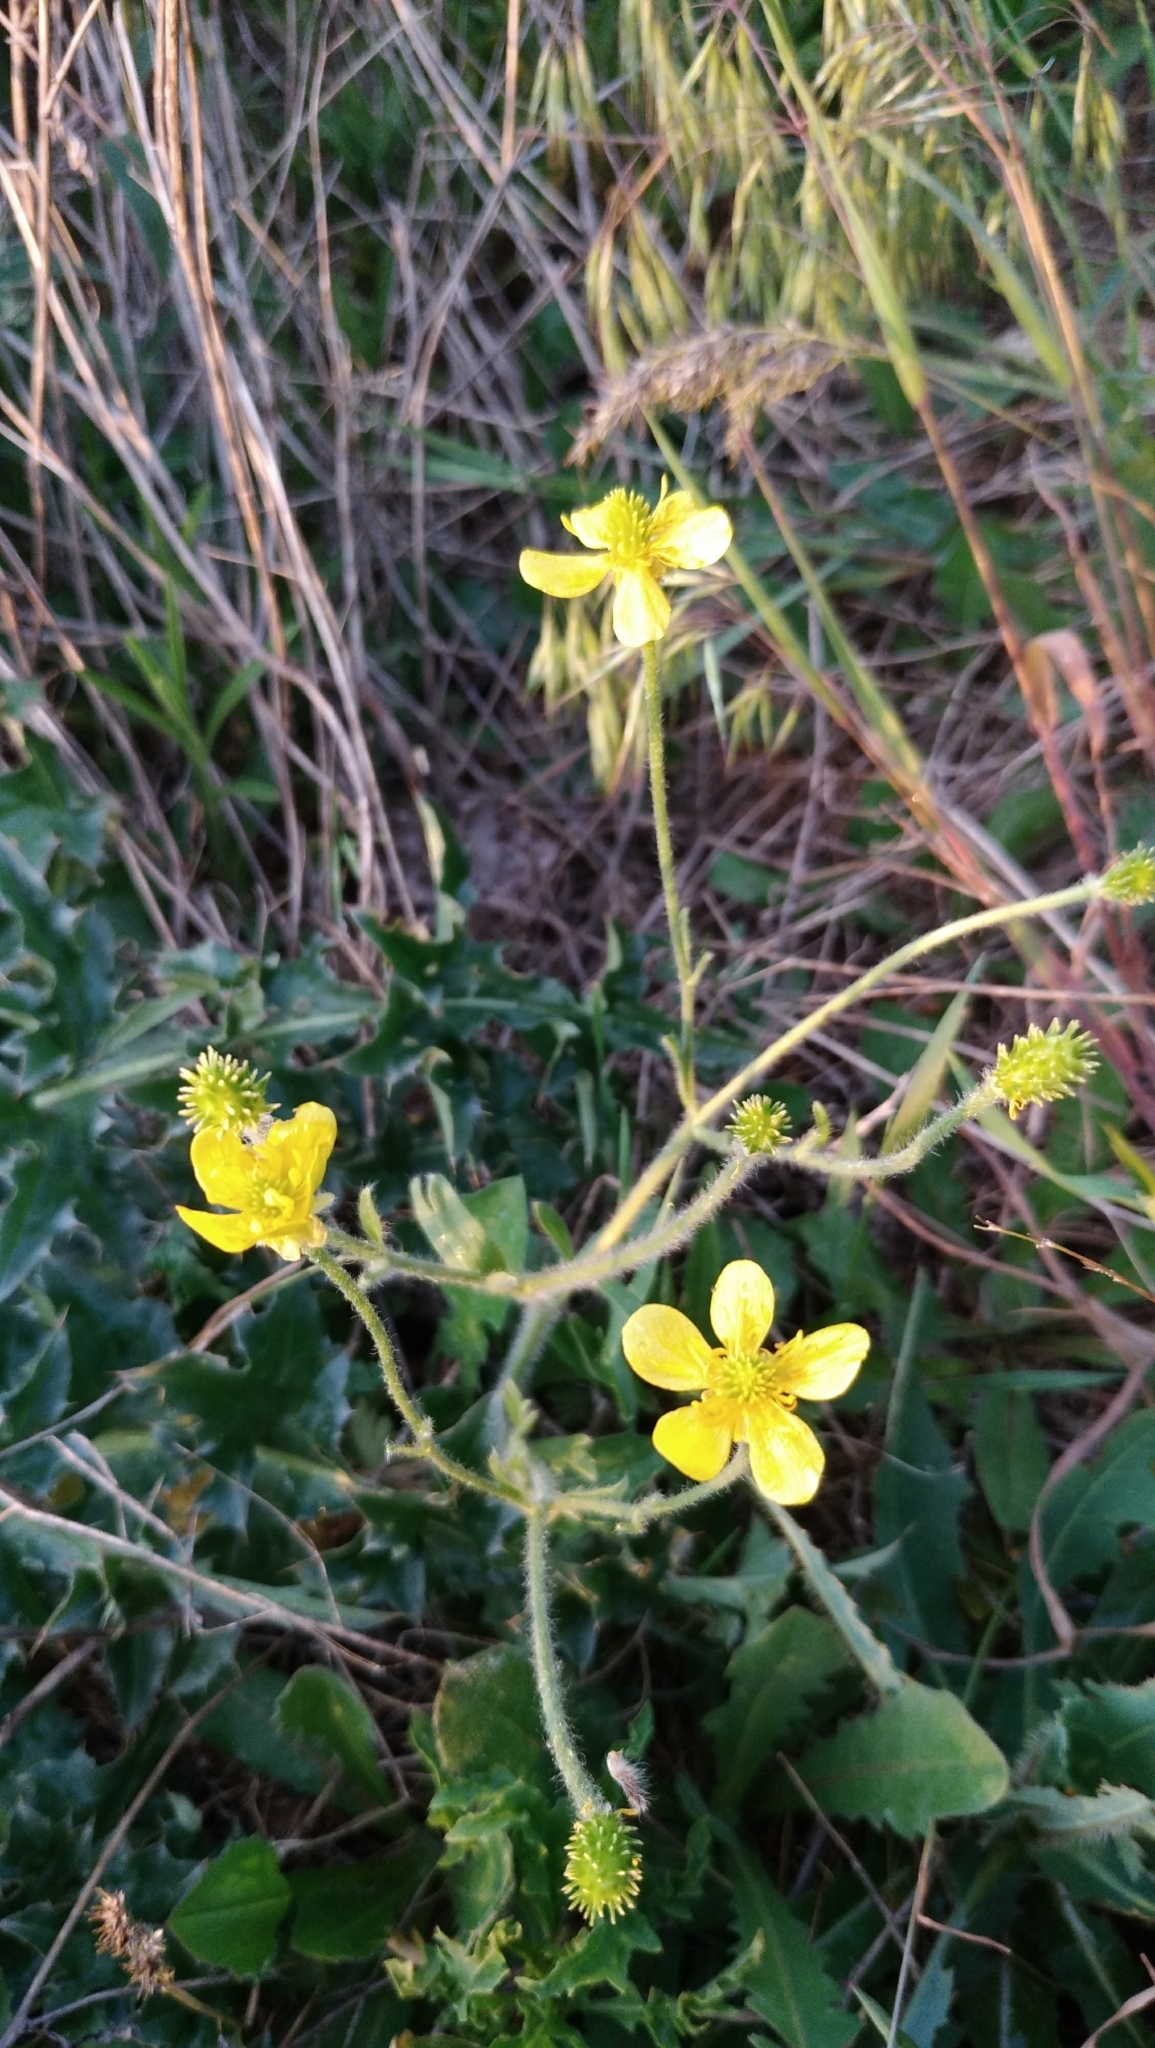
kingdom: Plantae
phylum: Tracheophyta
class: Magnoliopsida
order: Ranunculales
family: Ranunculaceae
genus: Ranunculus
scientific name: Ranunculus oxyspermus
